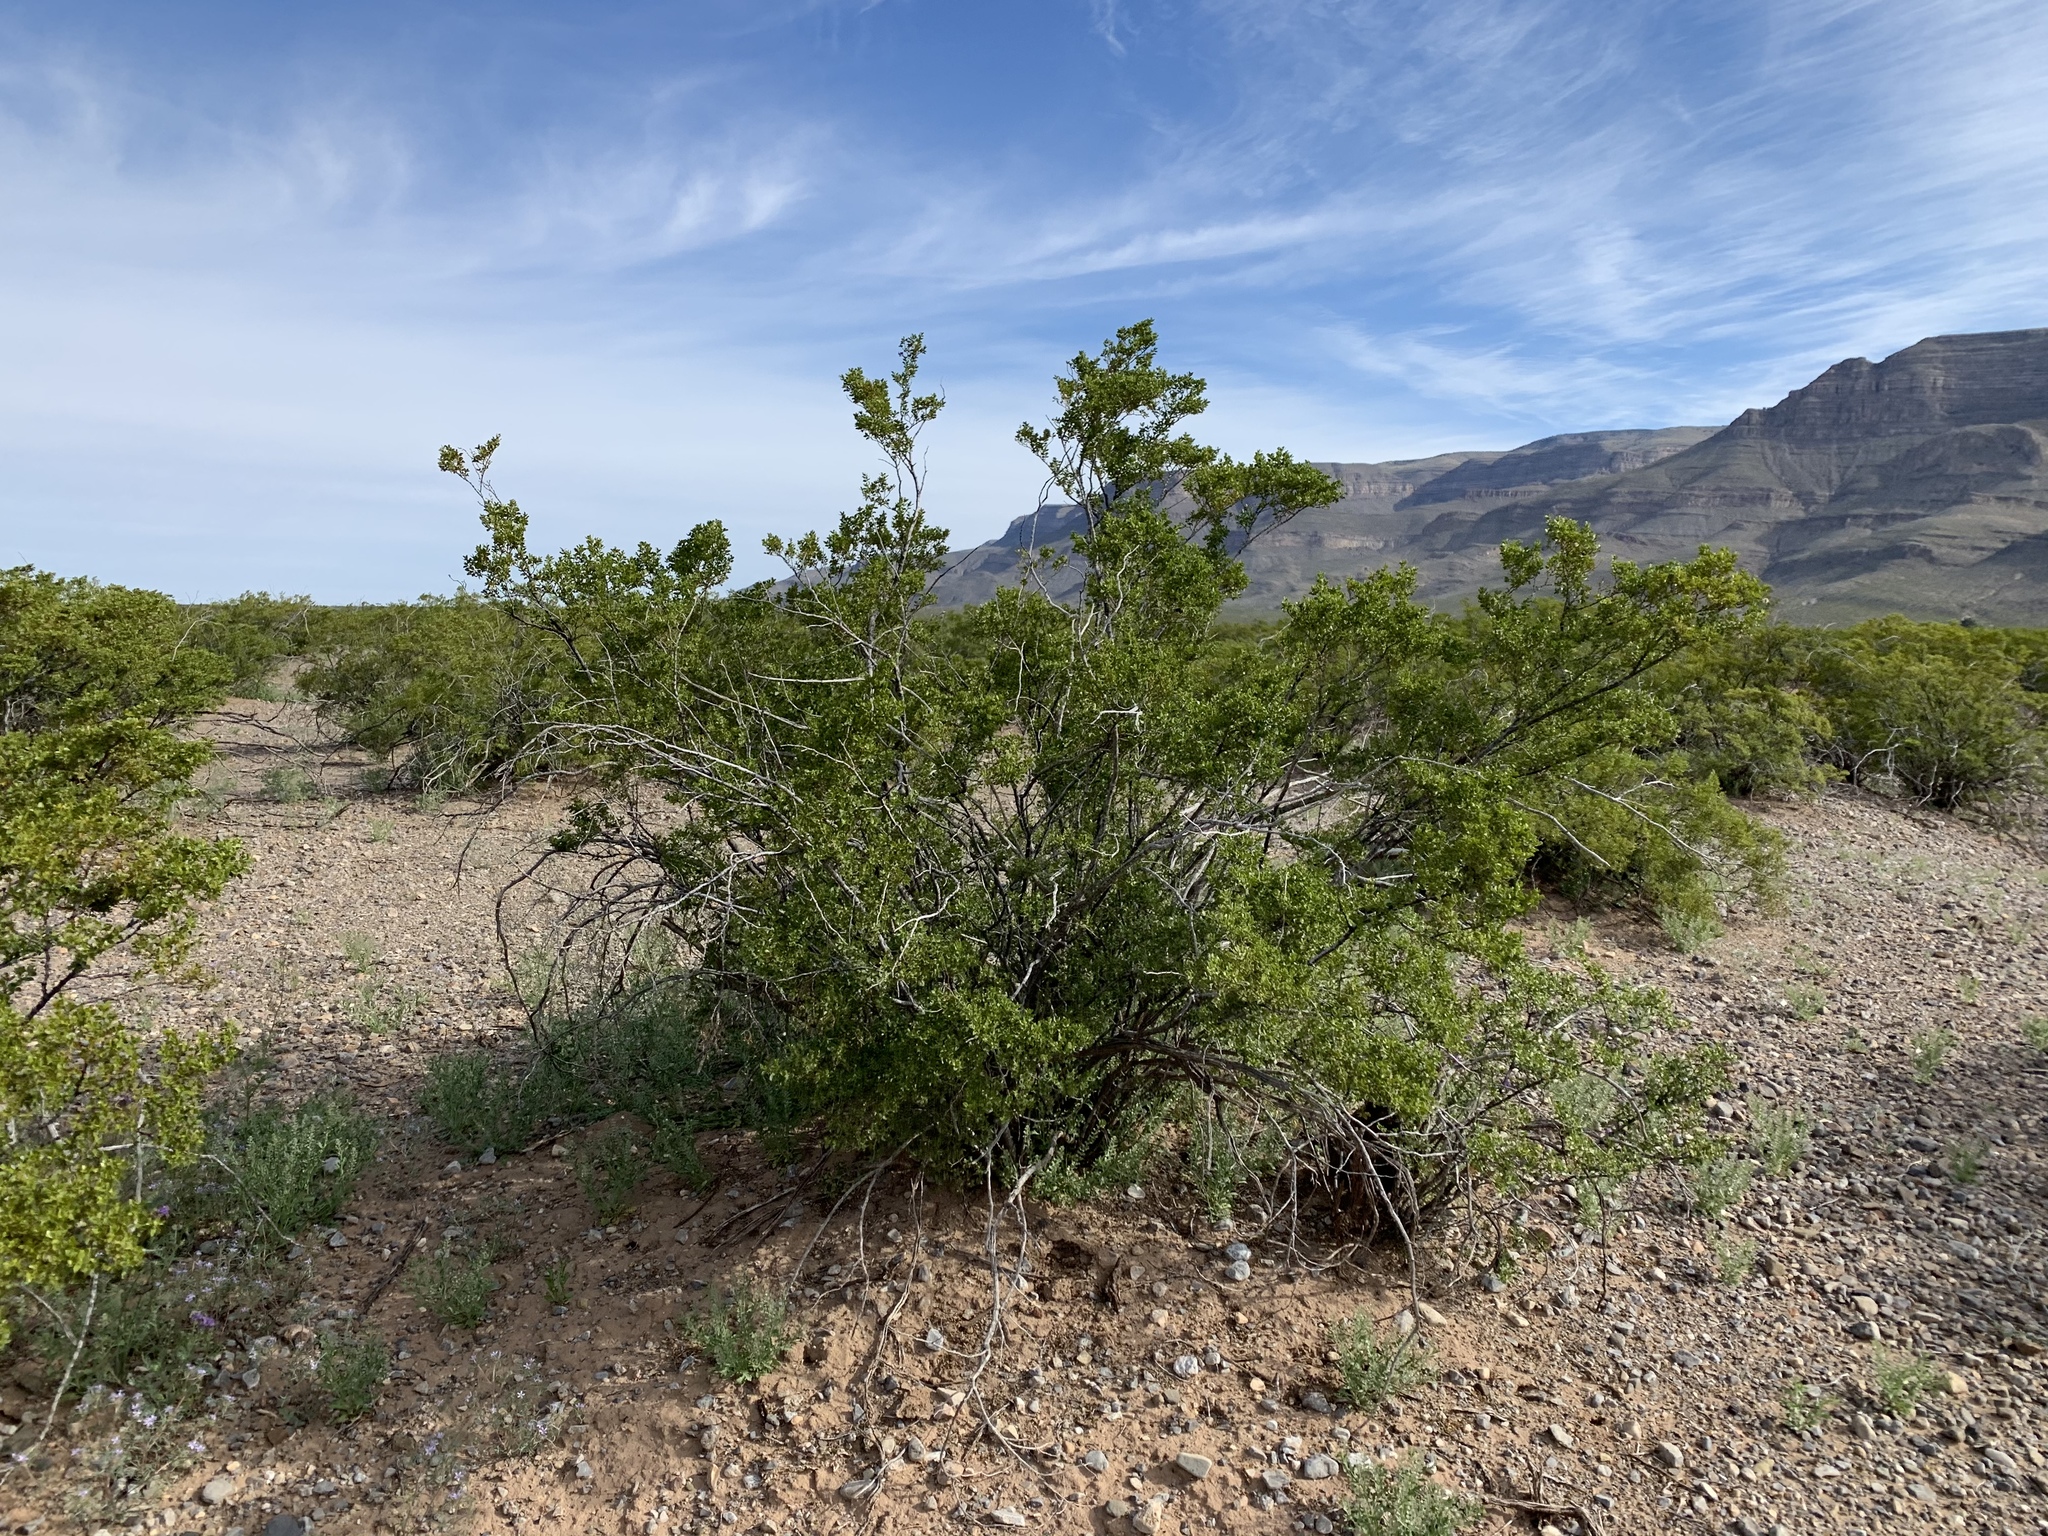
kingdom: Plantae
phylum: Tracheophyta
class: Magnoliopsida
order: Zygophyllales
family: Zygophyllaceae
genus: Larrea
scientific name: Larrea tridentata
